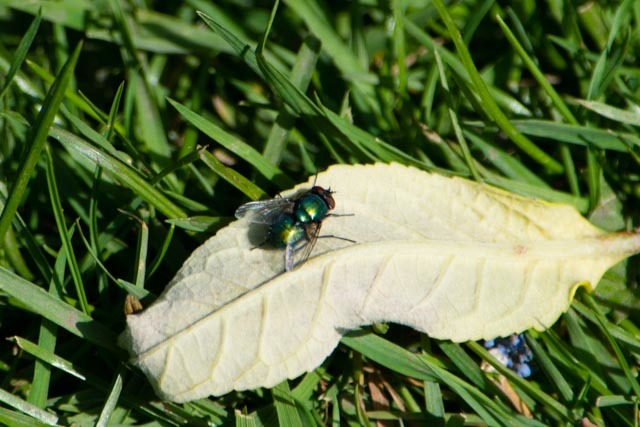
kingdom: Animalia
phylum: Arthropoda
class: Insecta
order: Diptera
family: Calliphoridae
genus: Lucilia
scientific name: Lucilia
